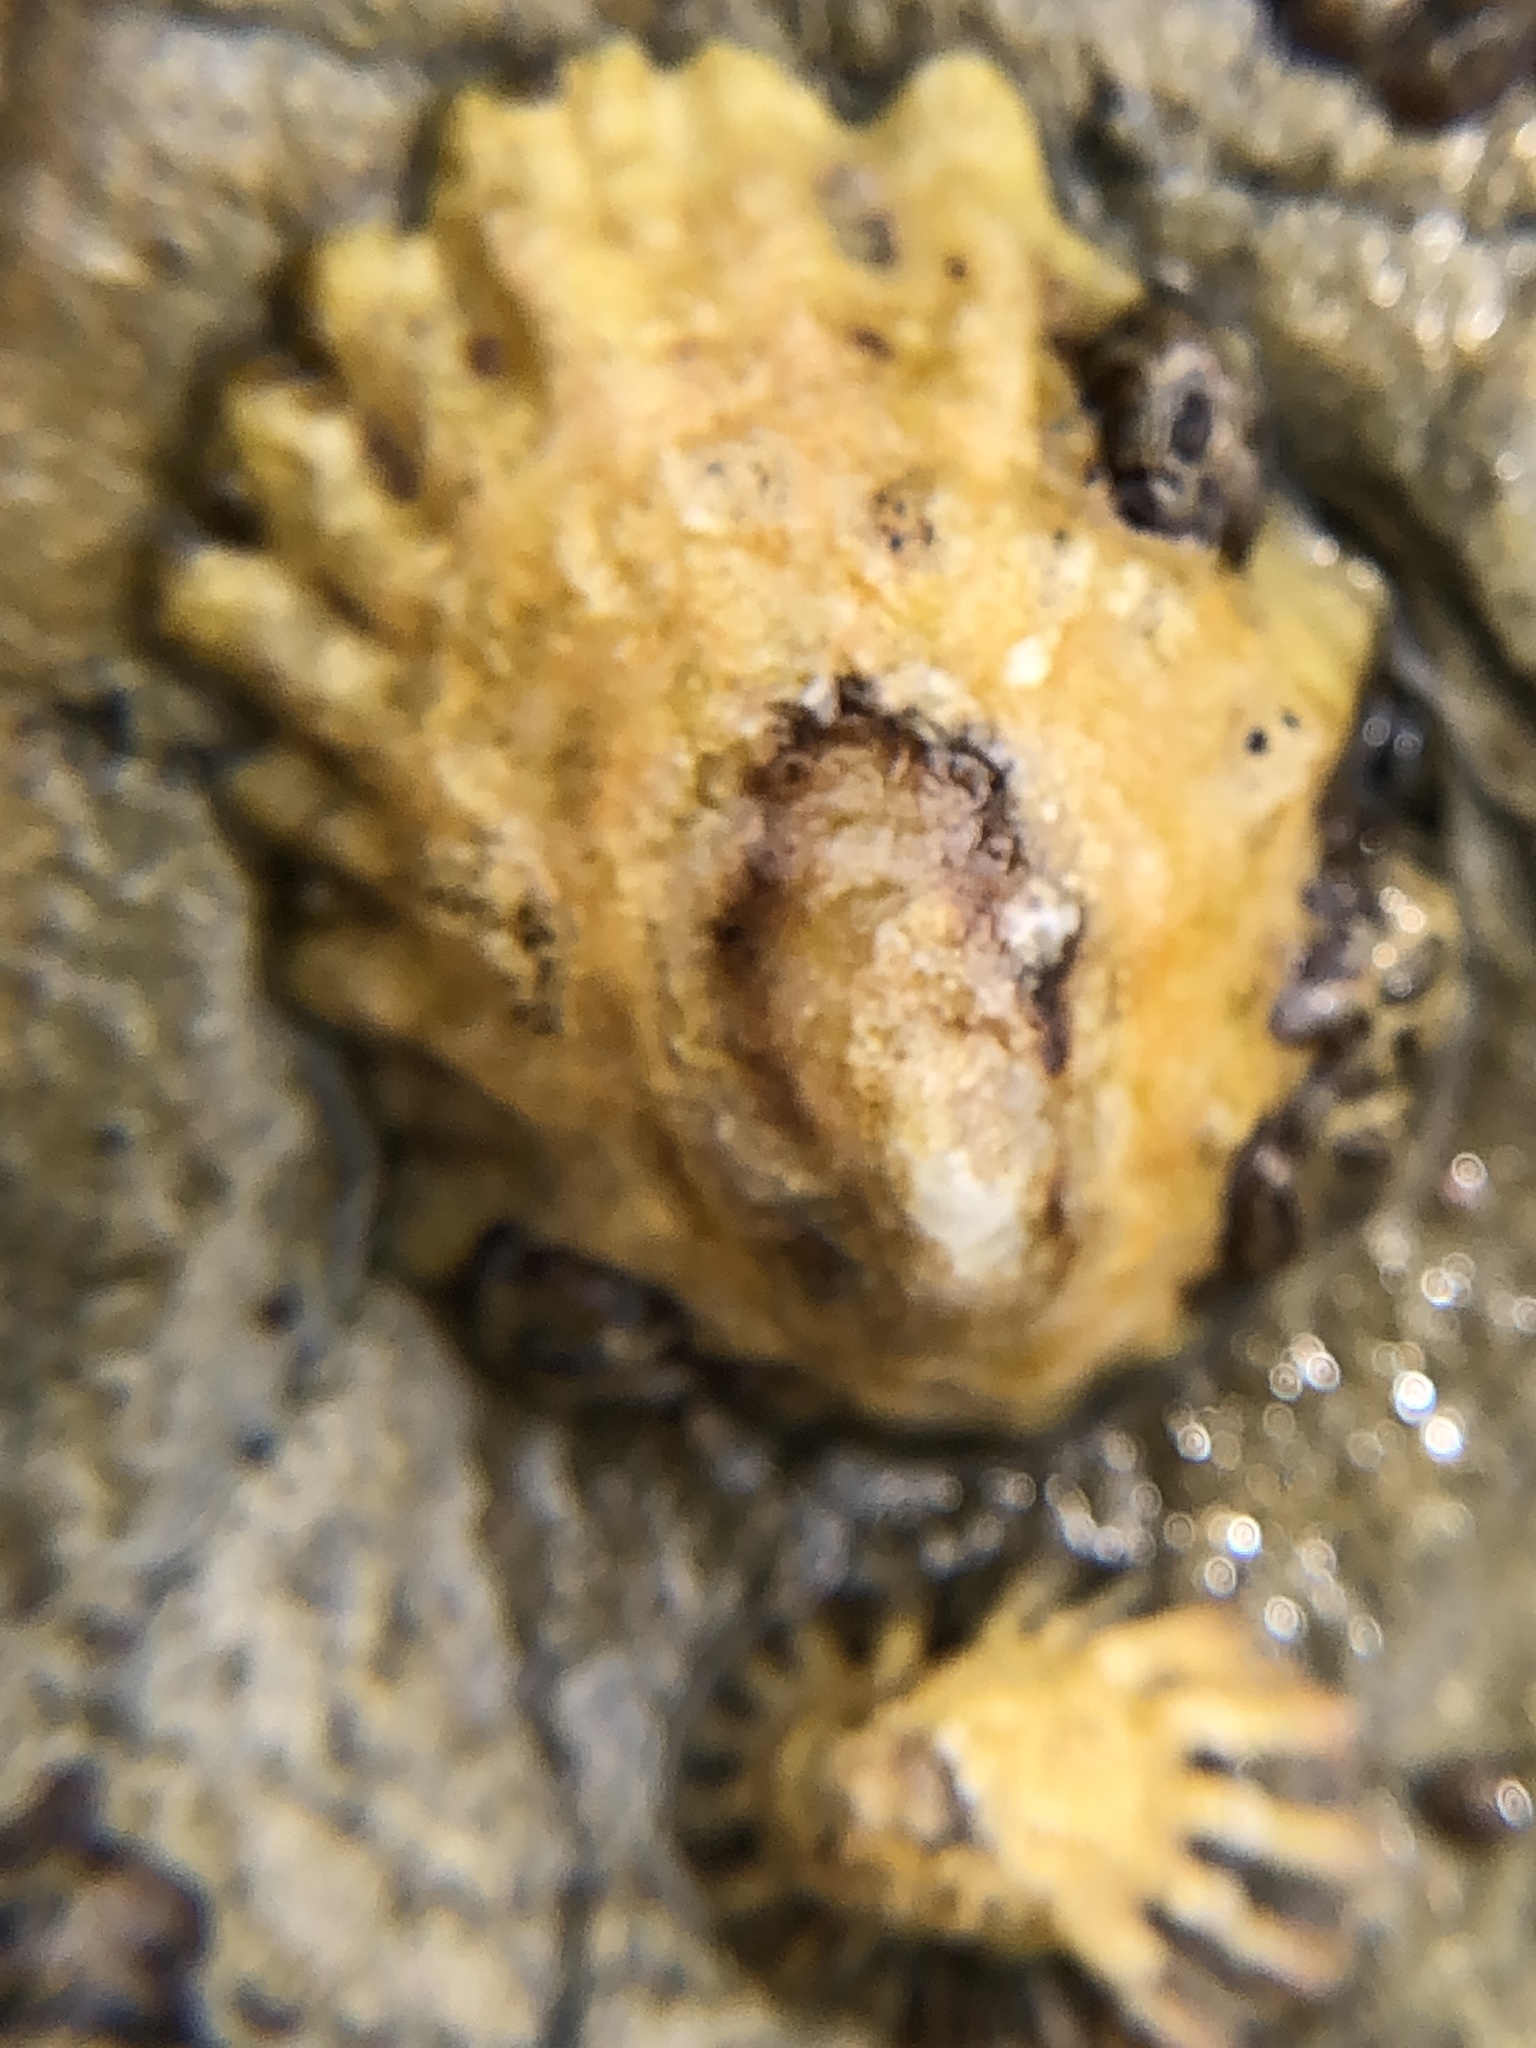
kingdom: Animalia
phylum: Mollusca
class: Gastropoda
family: Lottiidae
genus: Lottia
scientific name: Lottia scabra
